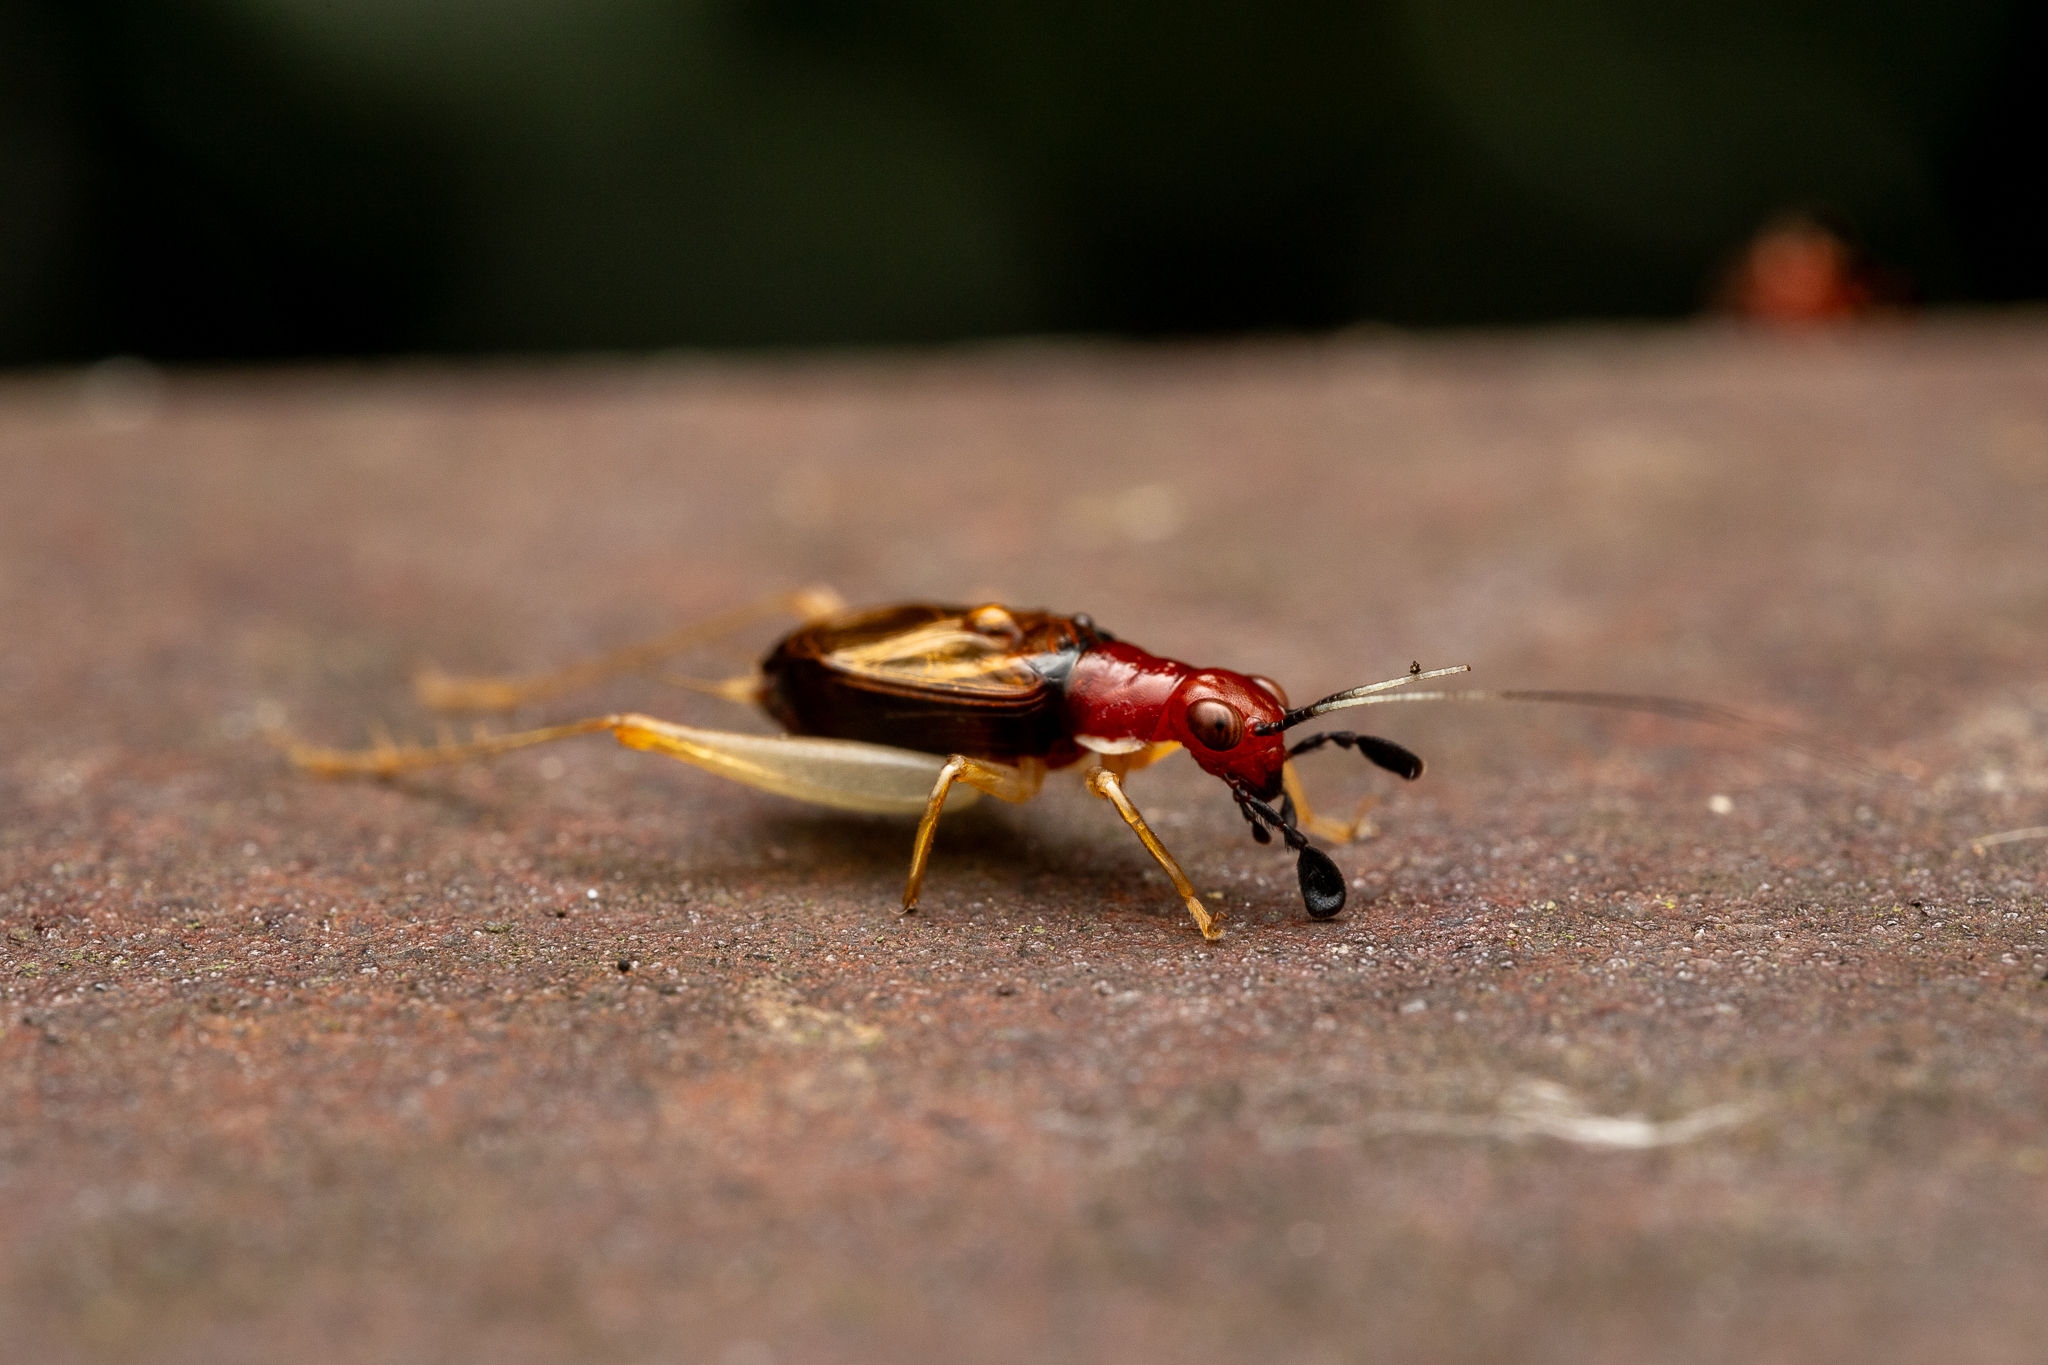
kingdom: Animalia
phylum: Arthropoda
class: Insecta
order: Orthoptera
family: Trigonidiidae
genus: Phyllopalpus
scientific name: Phyllopalpus pulchellus
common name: Handsome trig
